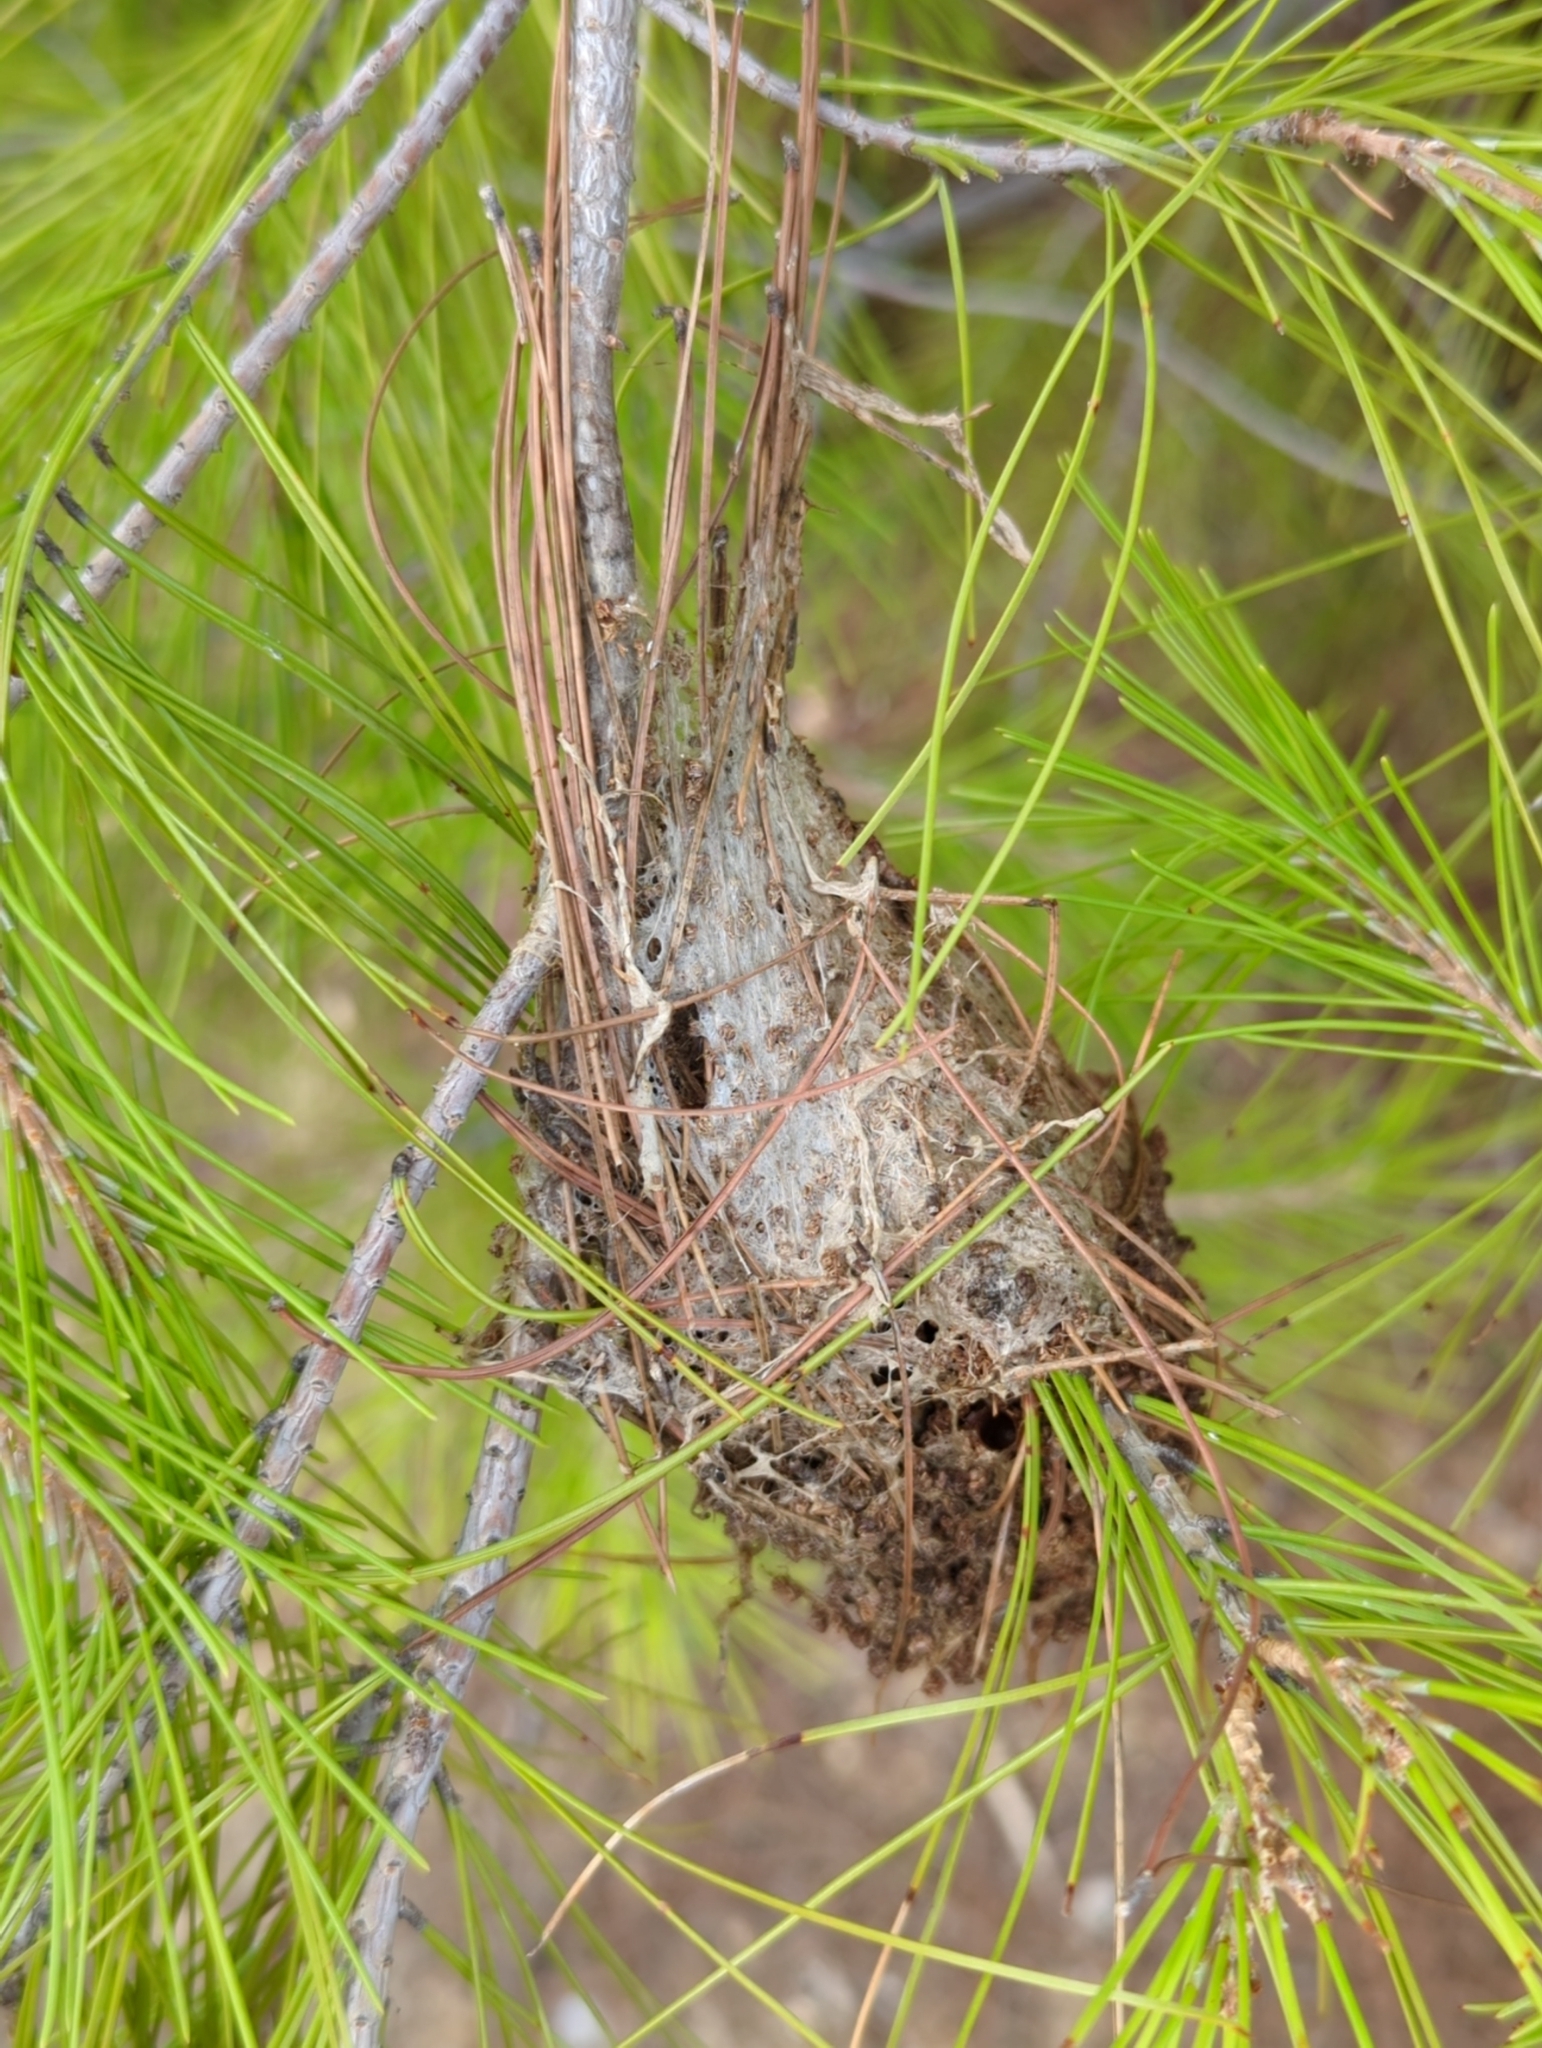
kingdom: Animalia
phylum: Arthropoda
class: Insecta
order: Lepidoptera
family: Notodontidae
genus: Thaumetopoea
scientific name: Thaumetopoea pityocampa
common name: Pine processionary
